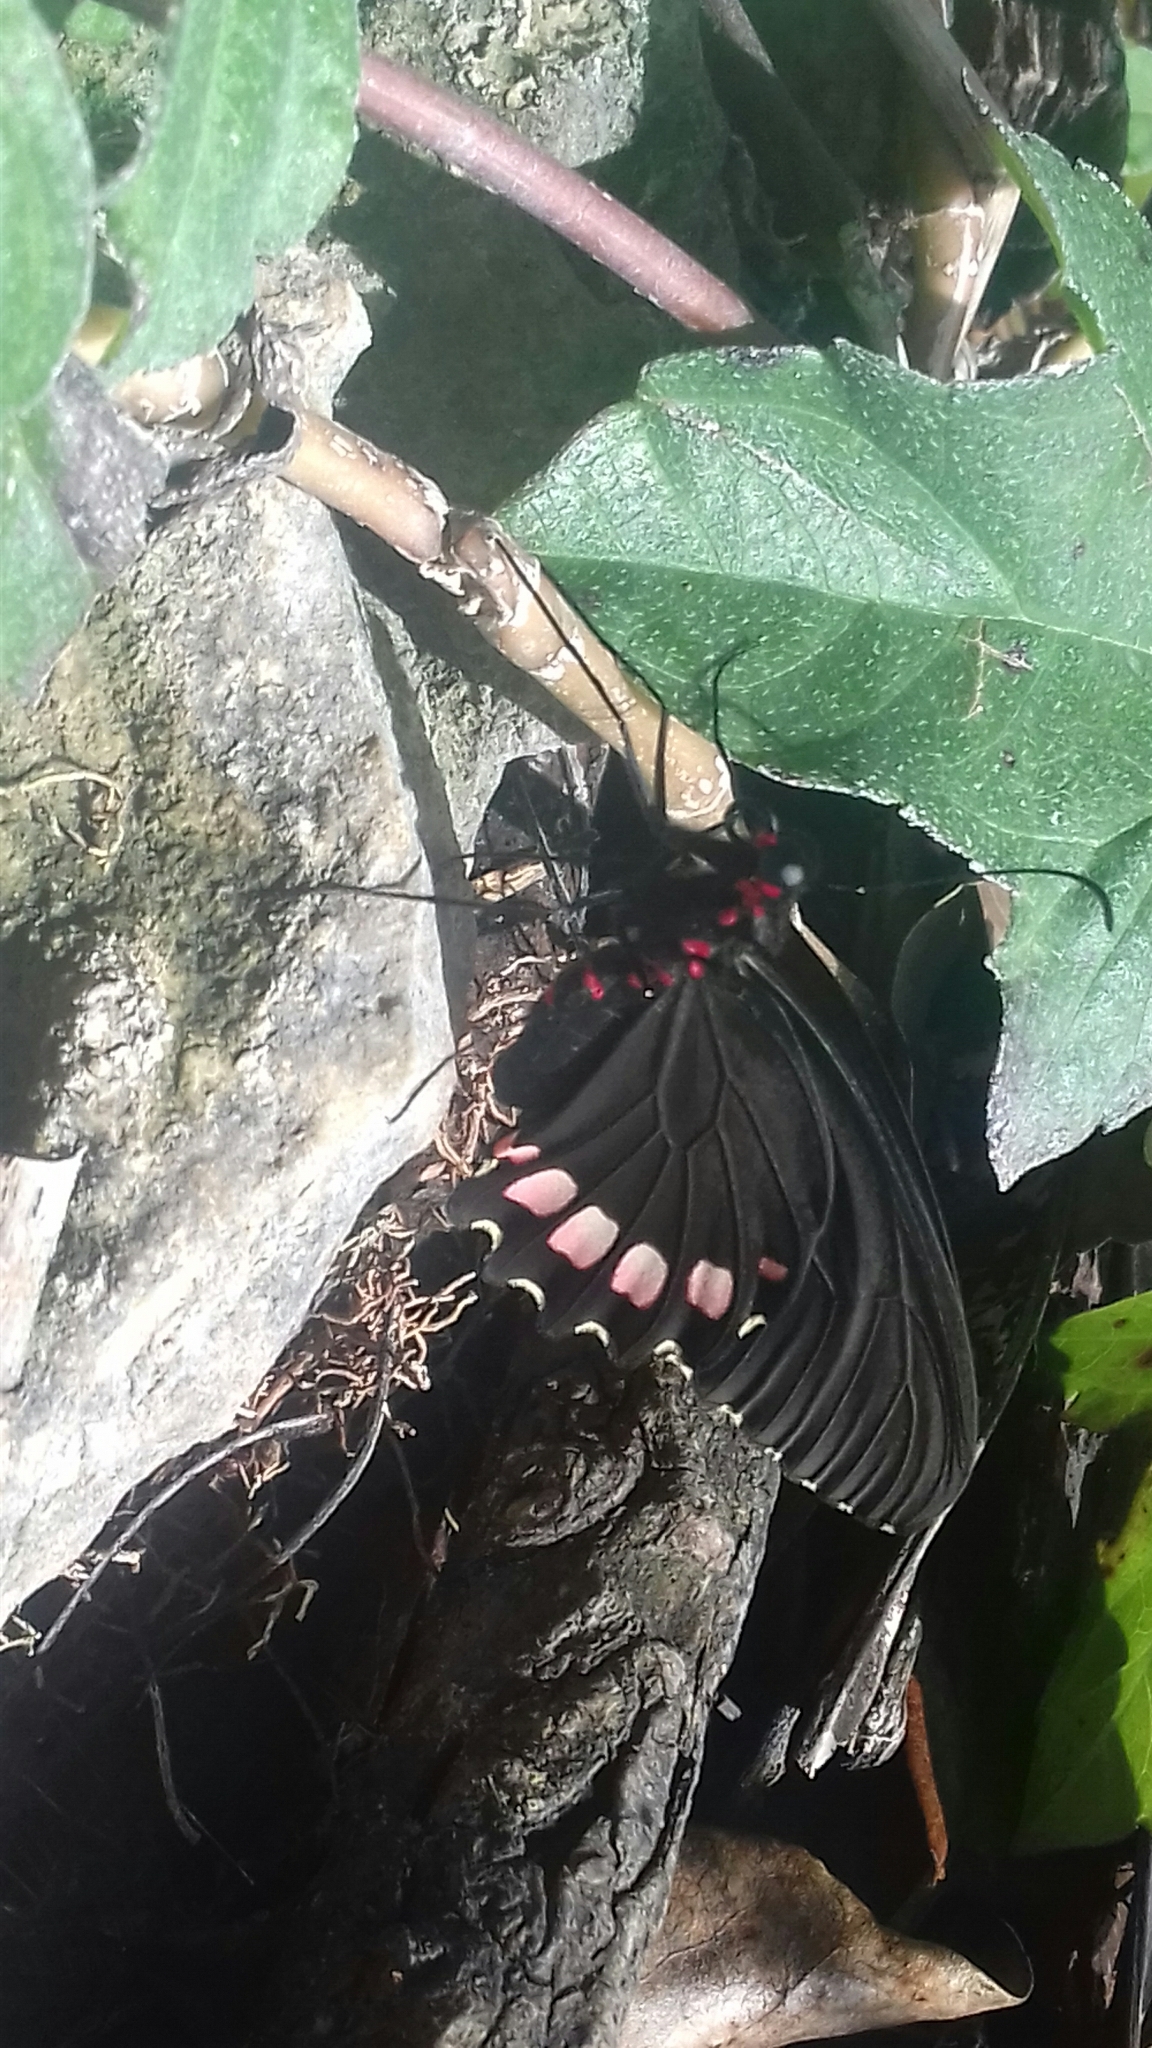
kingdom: Animalia
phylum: Arthropoda
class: Insecta
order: Lepidoptera
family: Papilionidae
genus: Parides
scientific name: Parides erithalion
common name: Variable cattleheart
